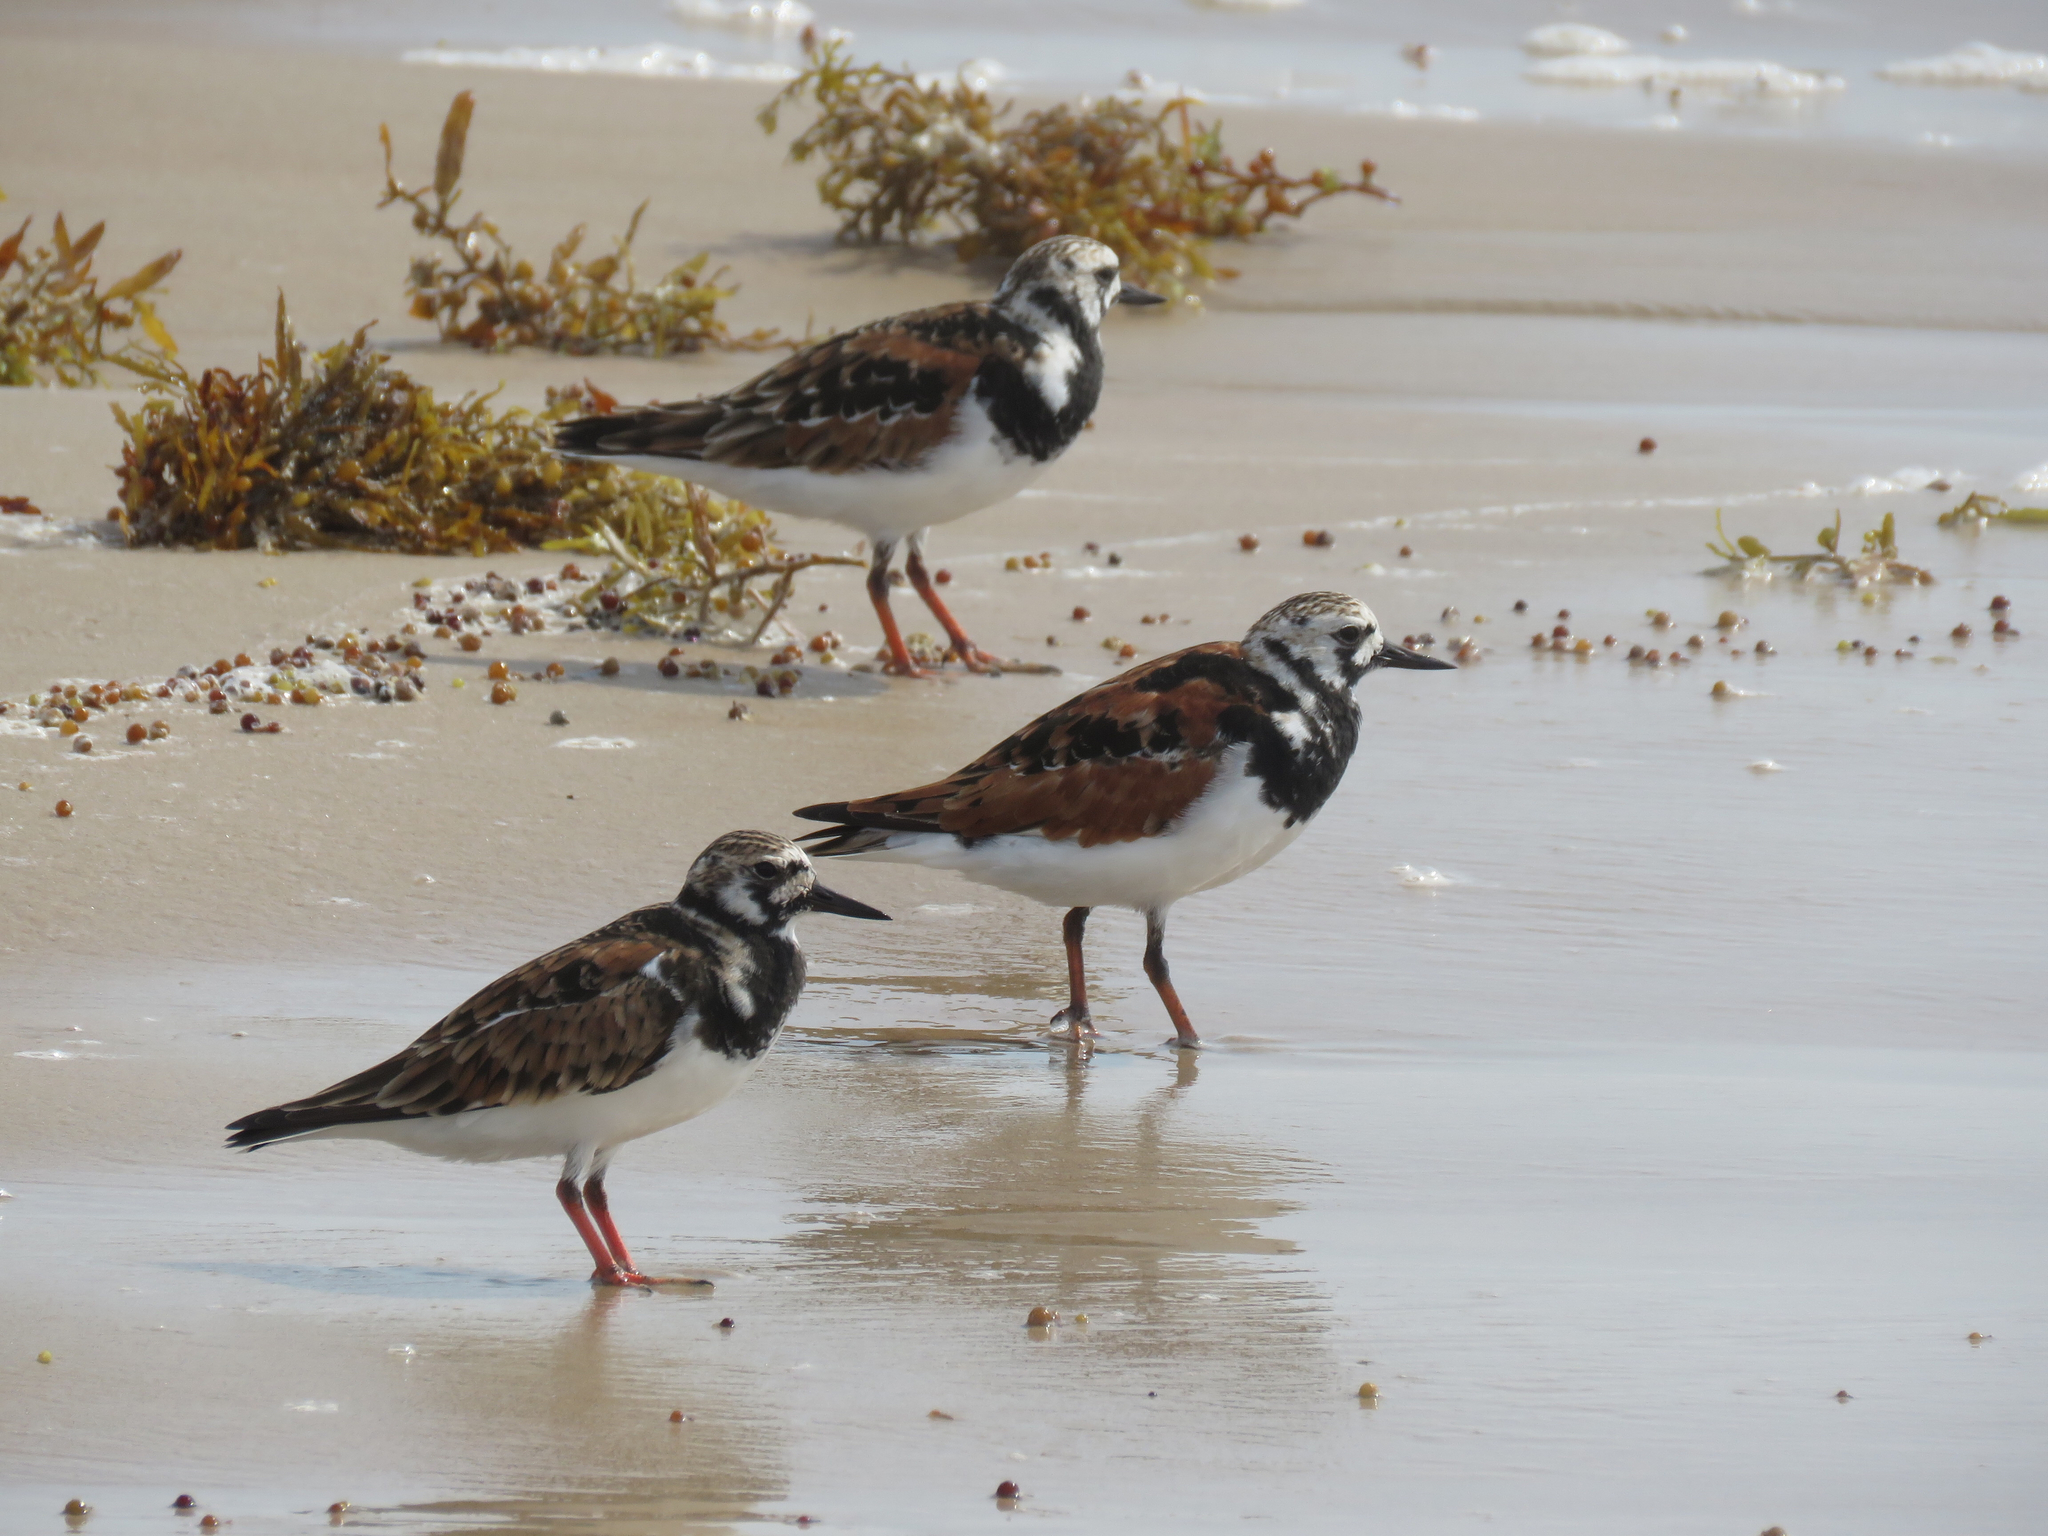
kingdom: Animalia
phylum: Chordata
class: Aves
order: Charadriiformes
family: Scolopacidae
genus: Arenaria
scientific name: Arenaria interpres
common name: Ruddy turnstone
